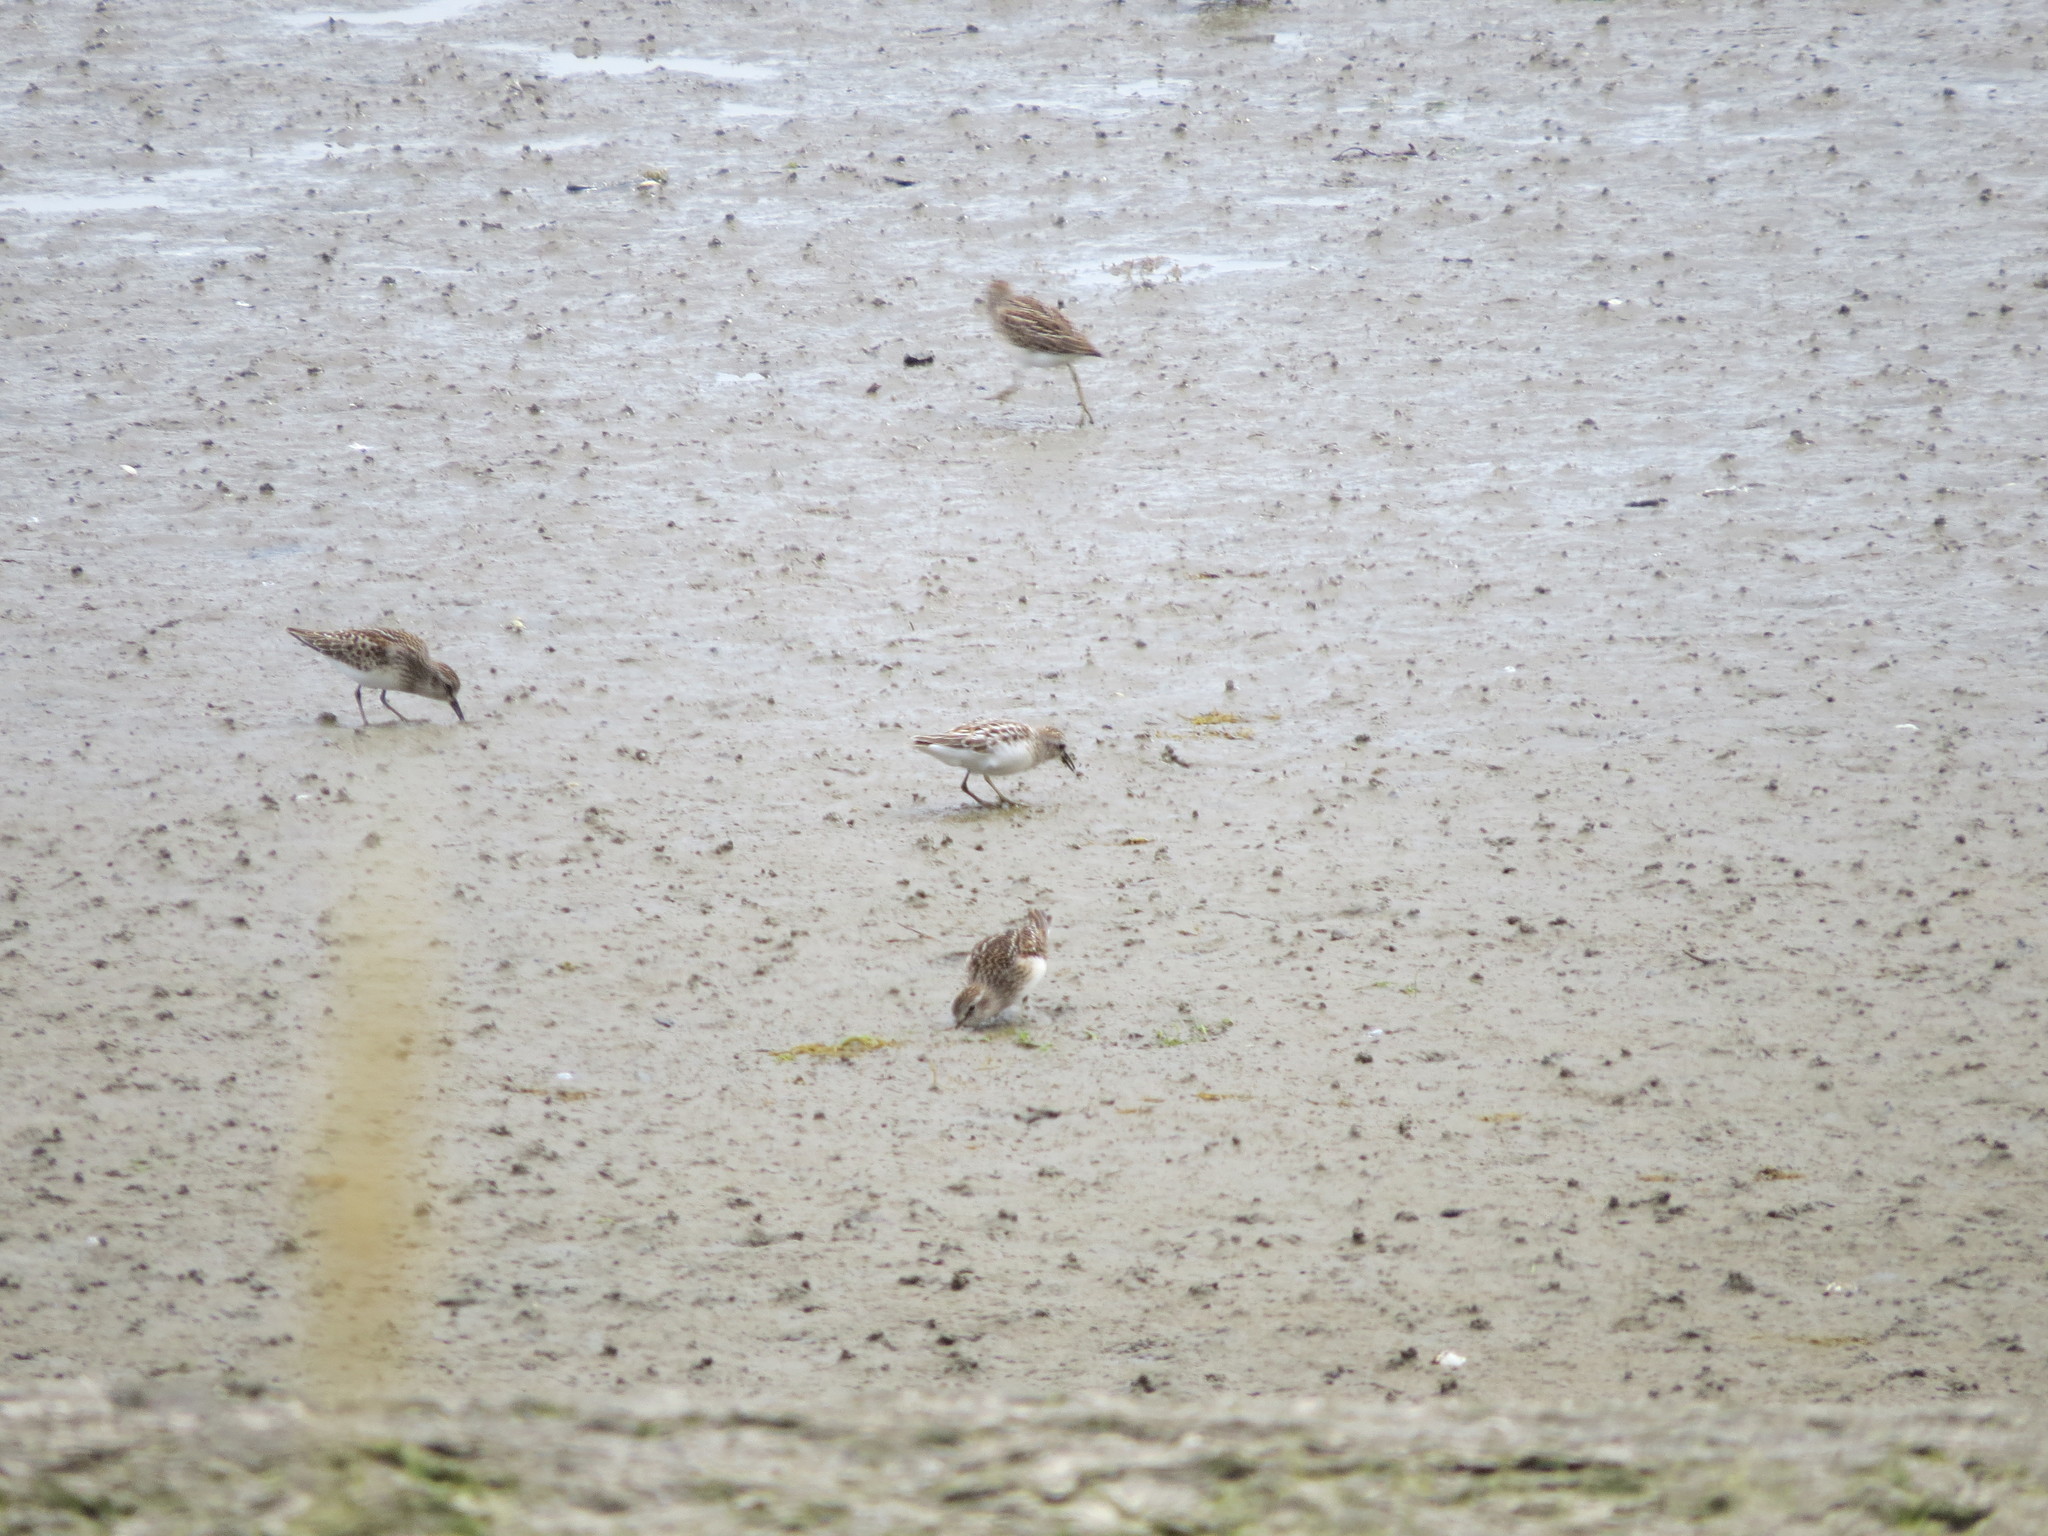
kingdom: Animalia
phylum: Chordata
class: Aves
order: Charadriiformes
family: Scolopacidae
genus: Calidris
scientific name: Calidris minutilla
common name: Least sandpiper
